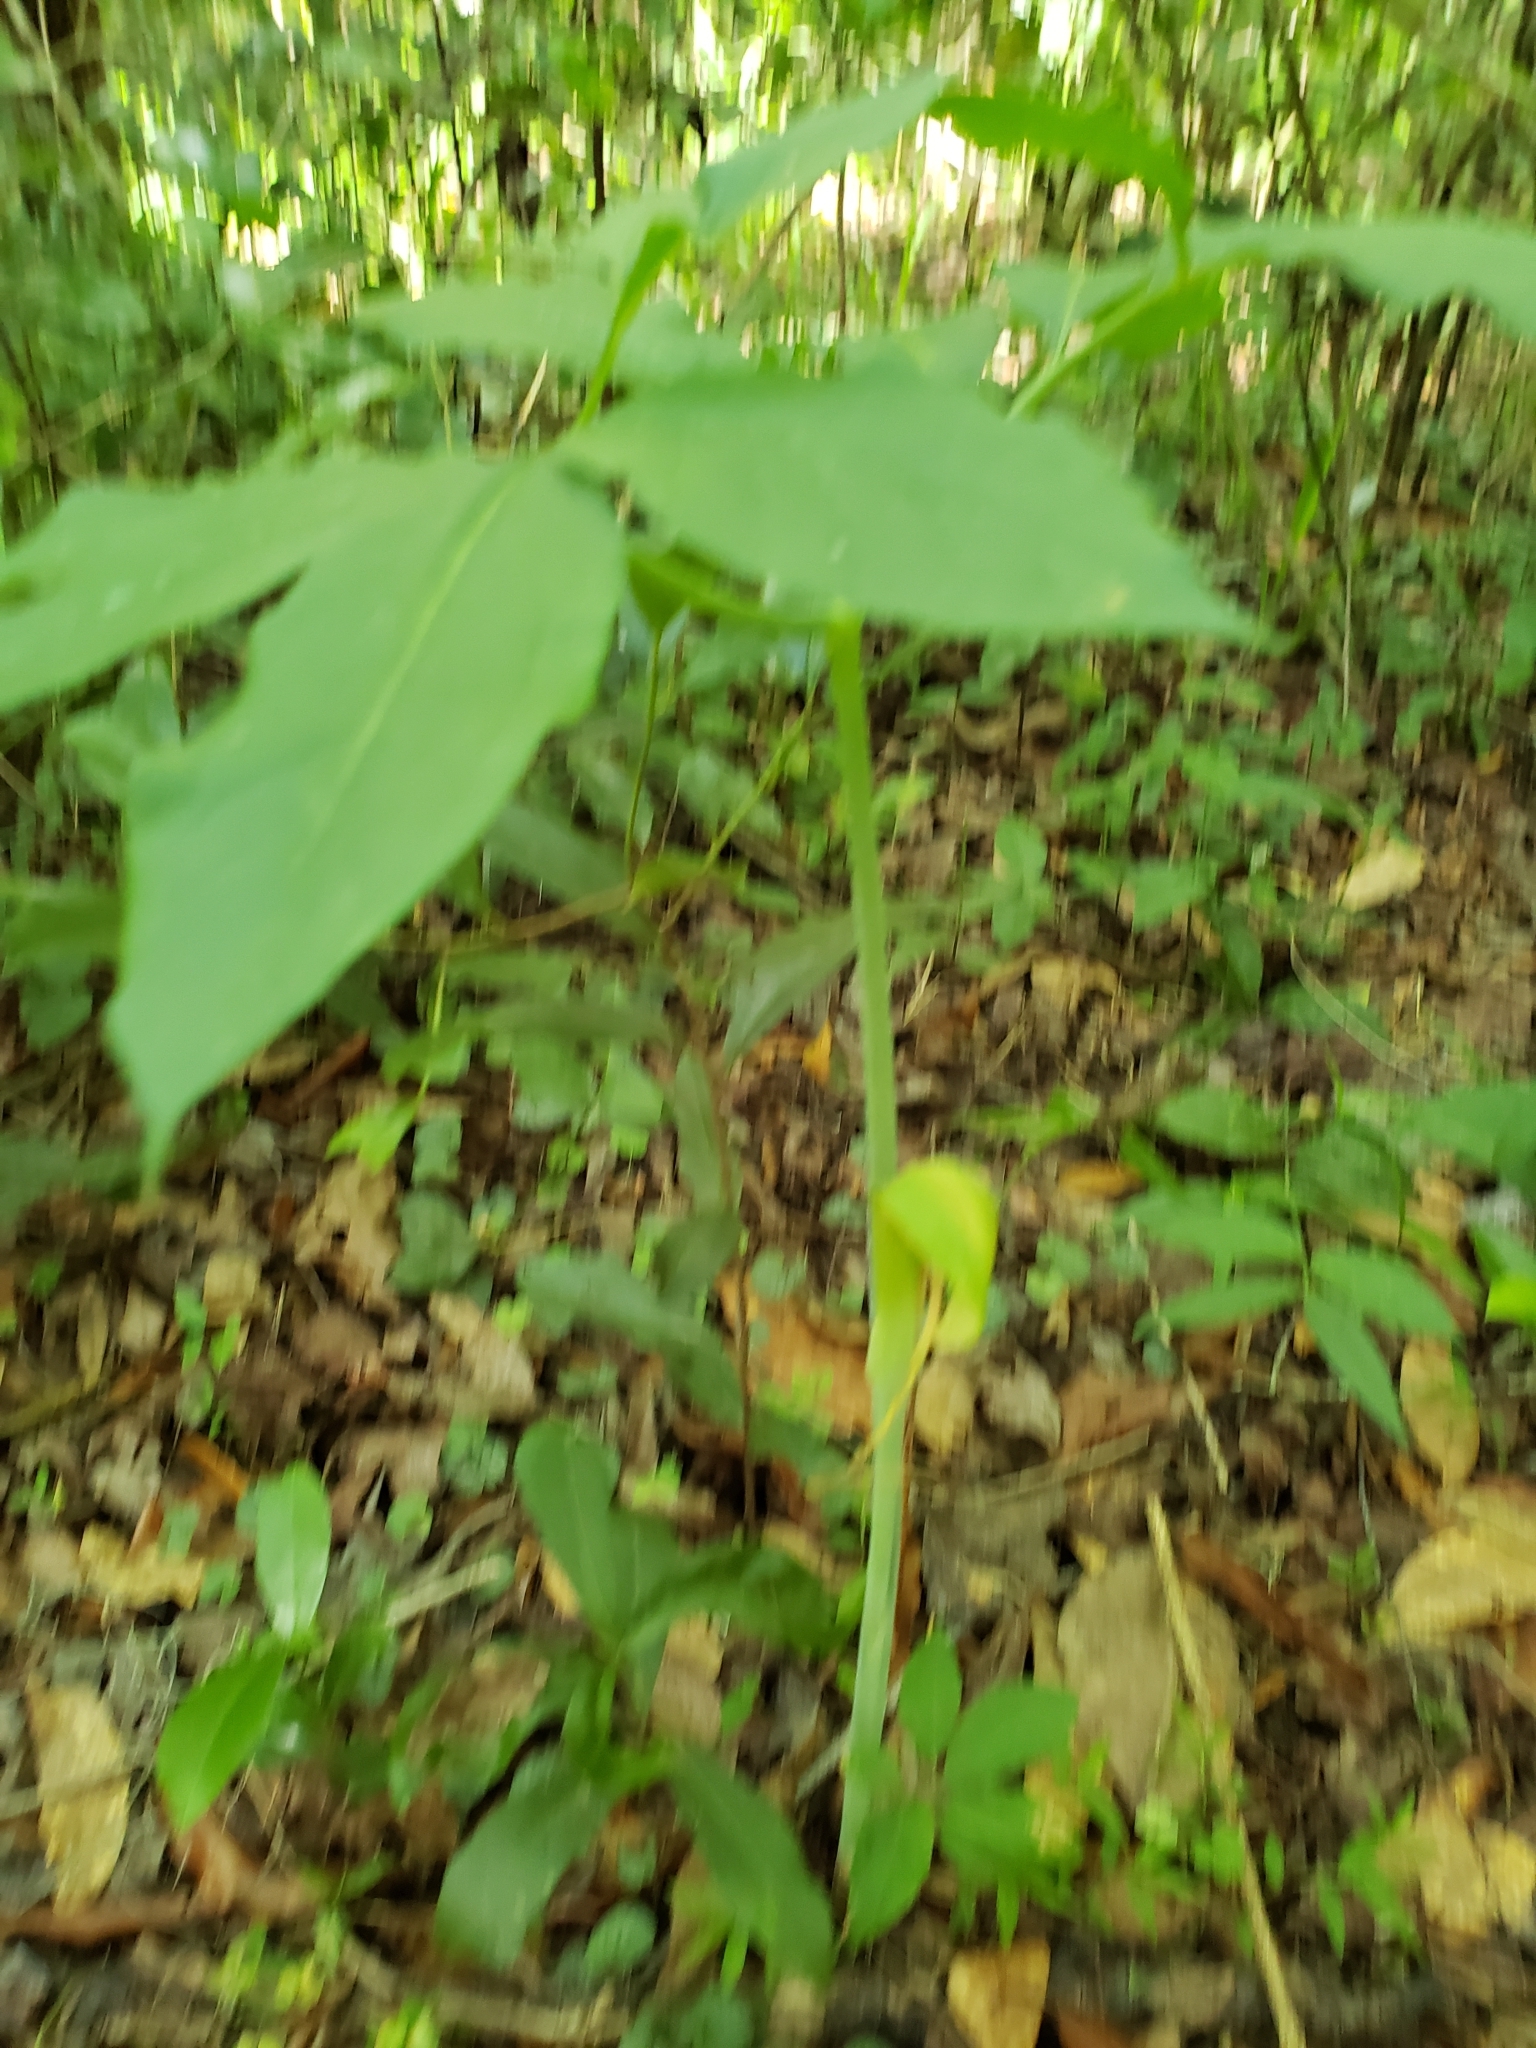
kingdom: Plantae
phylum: Tracheophyta
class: Liliopsida
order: Alismatales
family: Araceae
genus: Arisaema
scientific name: Arisaema dracontium
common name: Dragon-arum
